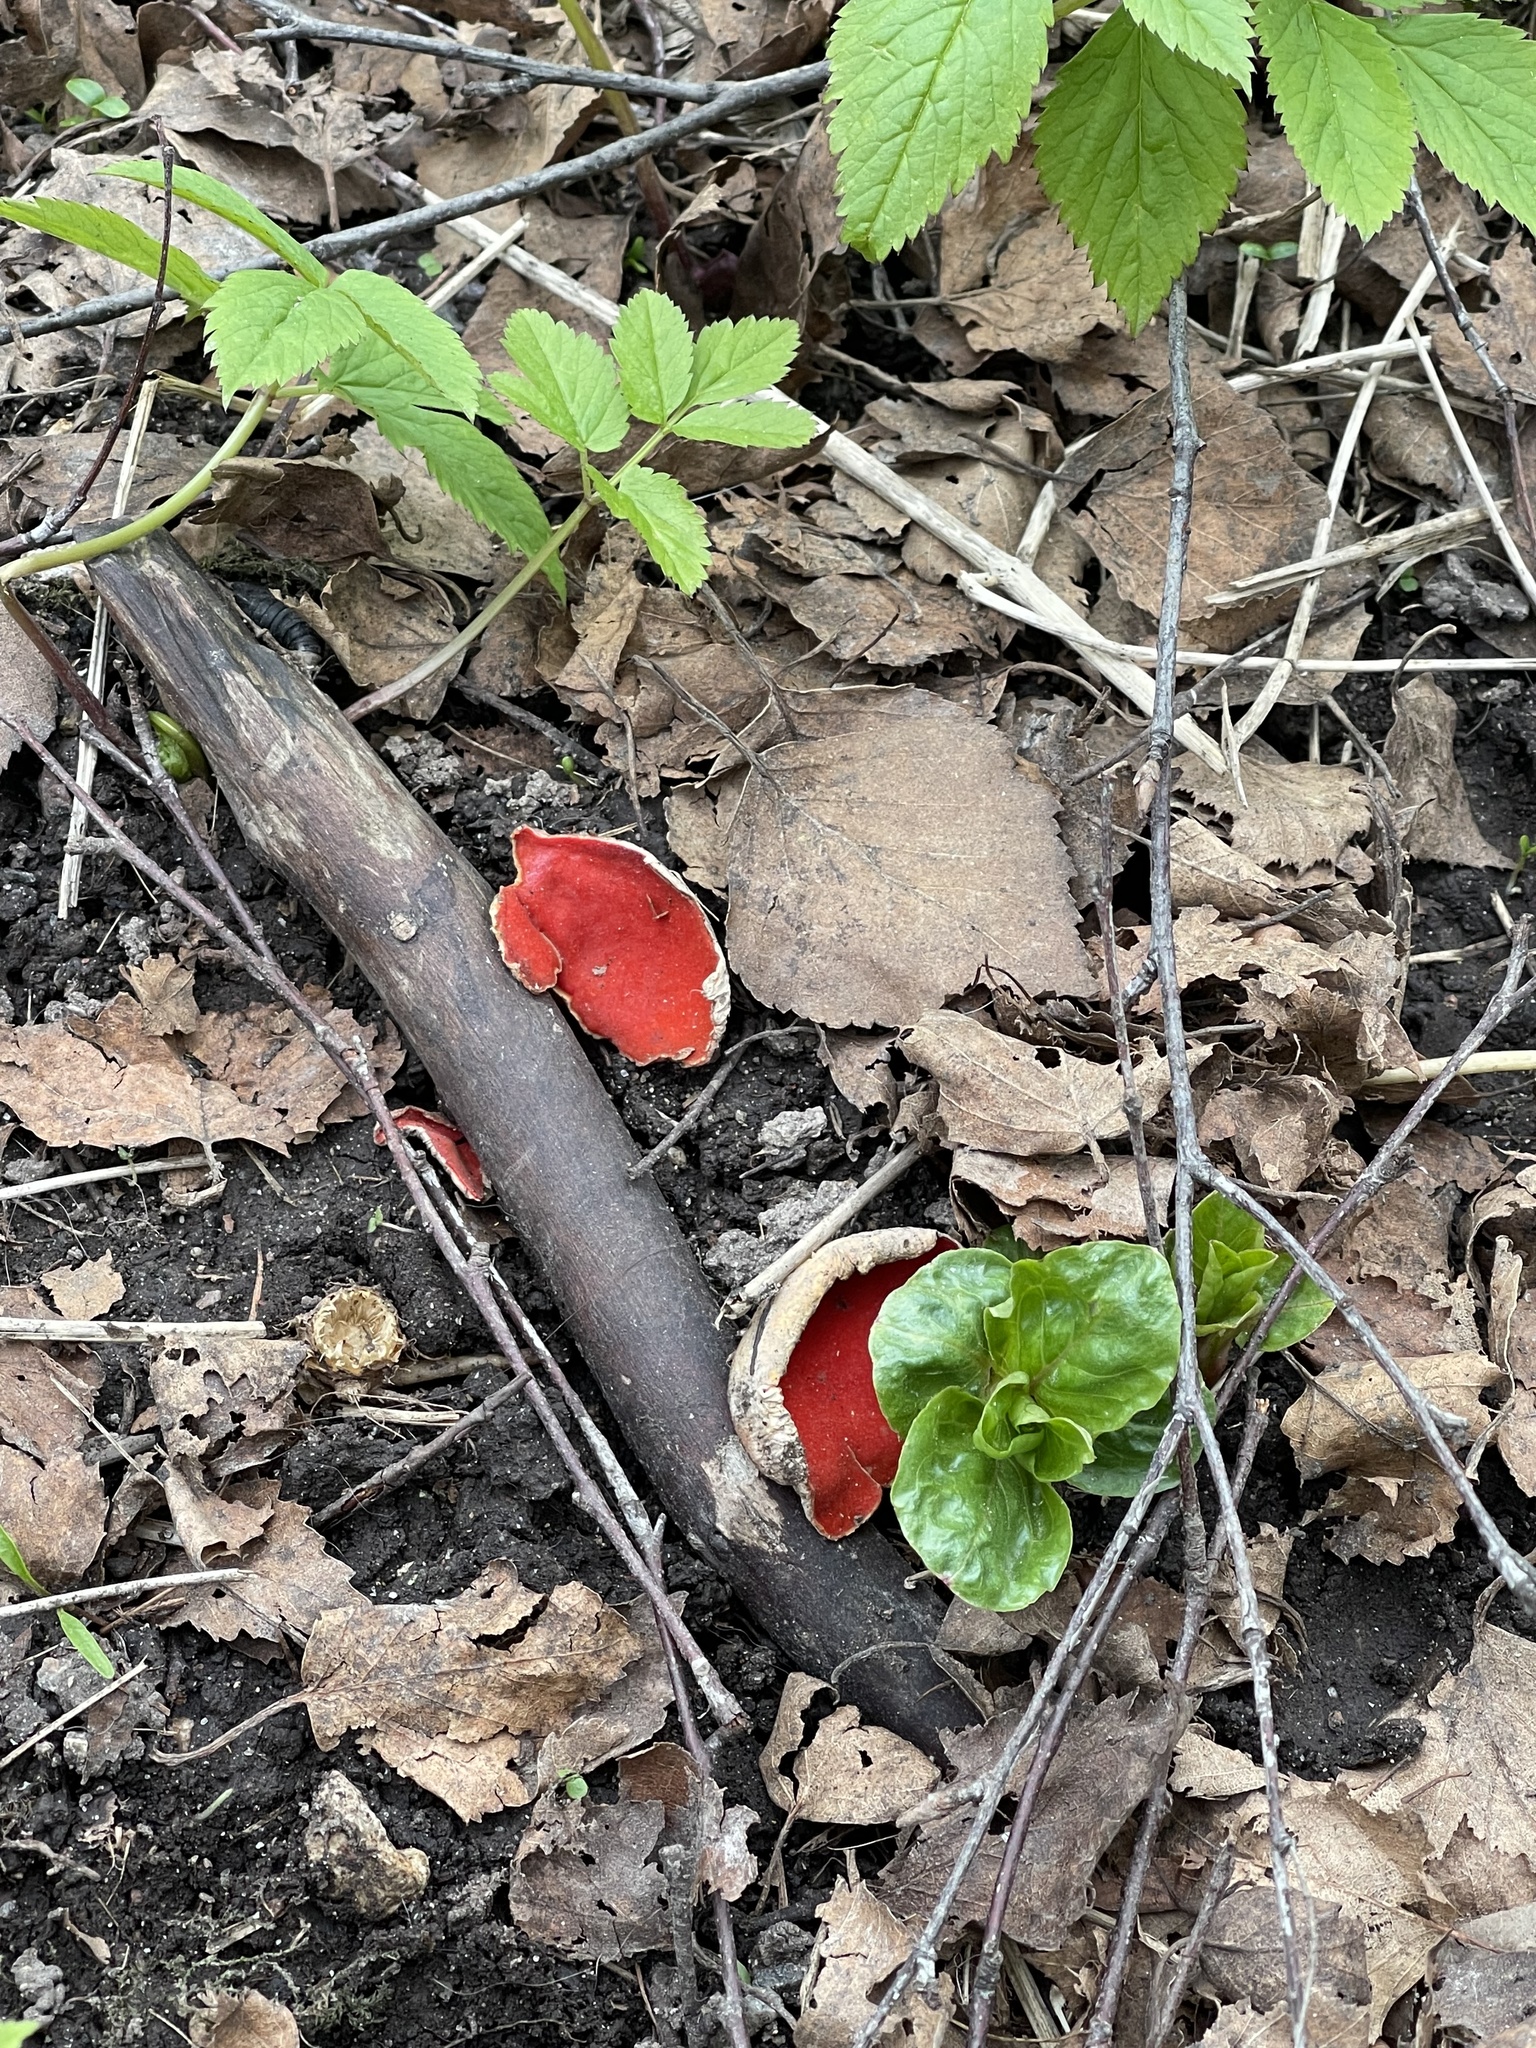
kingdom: Fungi
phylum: Ascomycota
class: Pezizomycetes
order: Pezizales
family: Sarcoscyphaceae
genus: Sarcoscypha
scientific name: Sarcoscypha austriaca
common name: Scarlet elfcup
